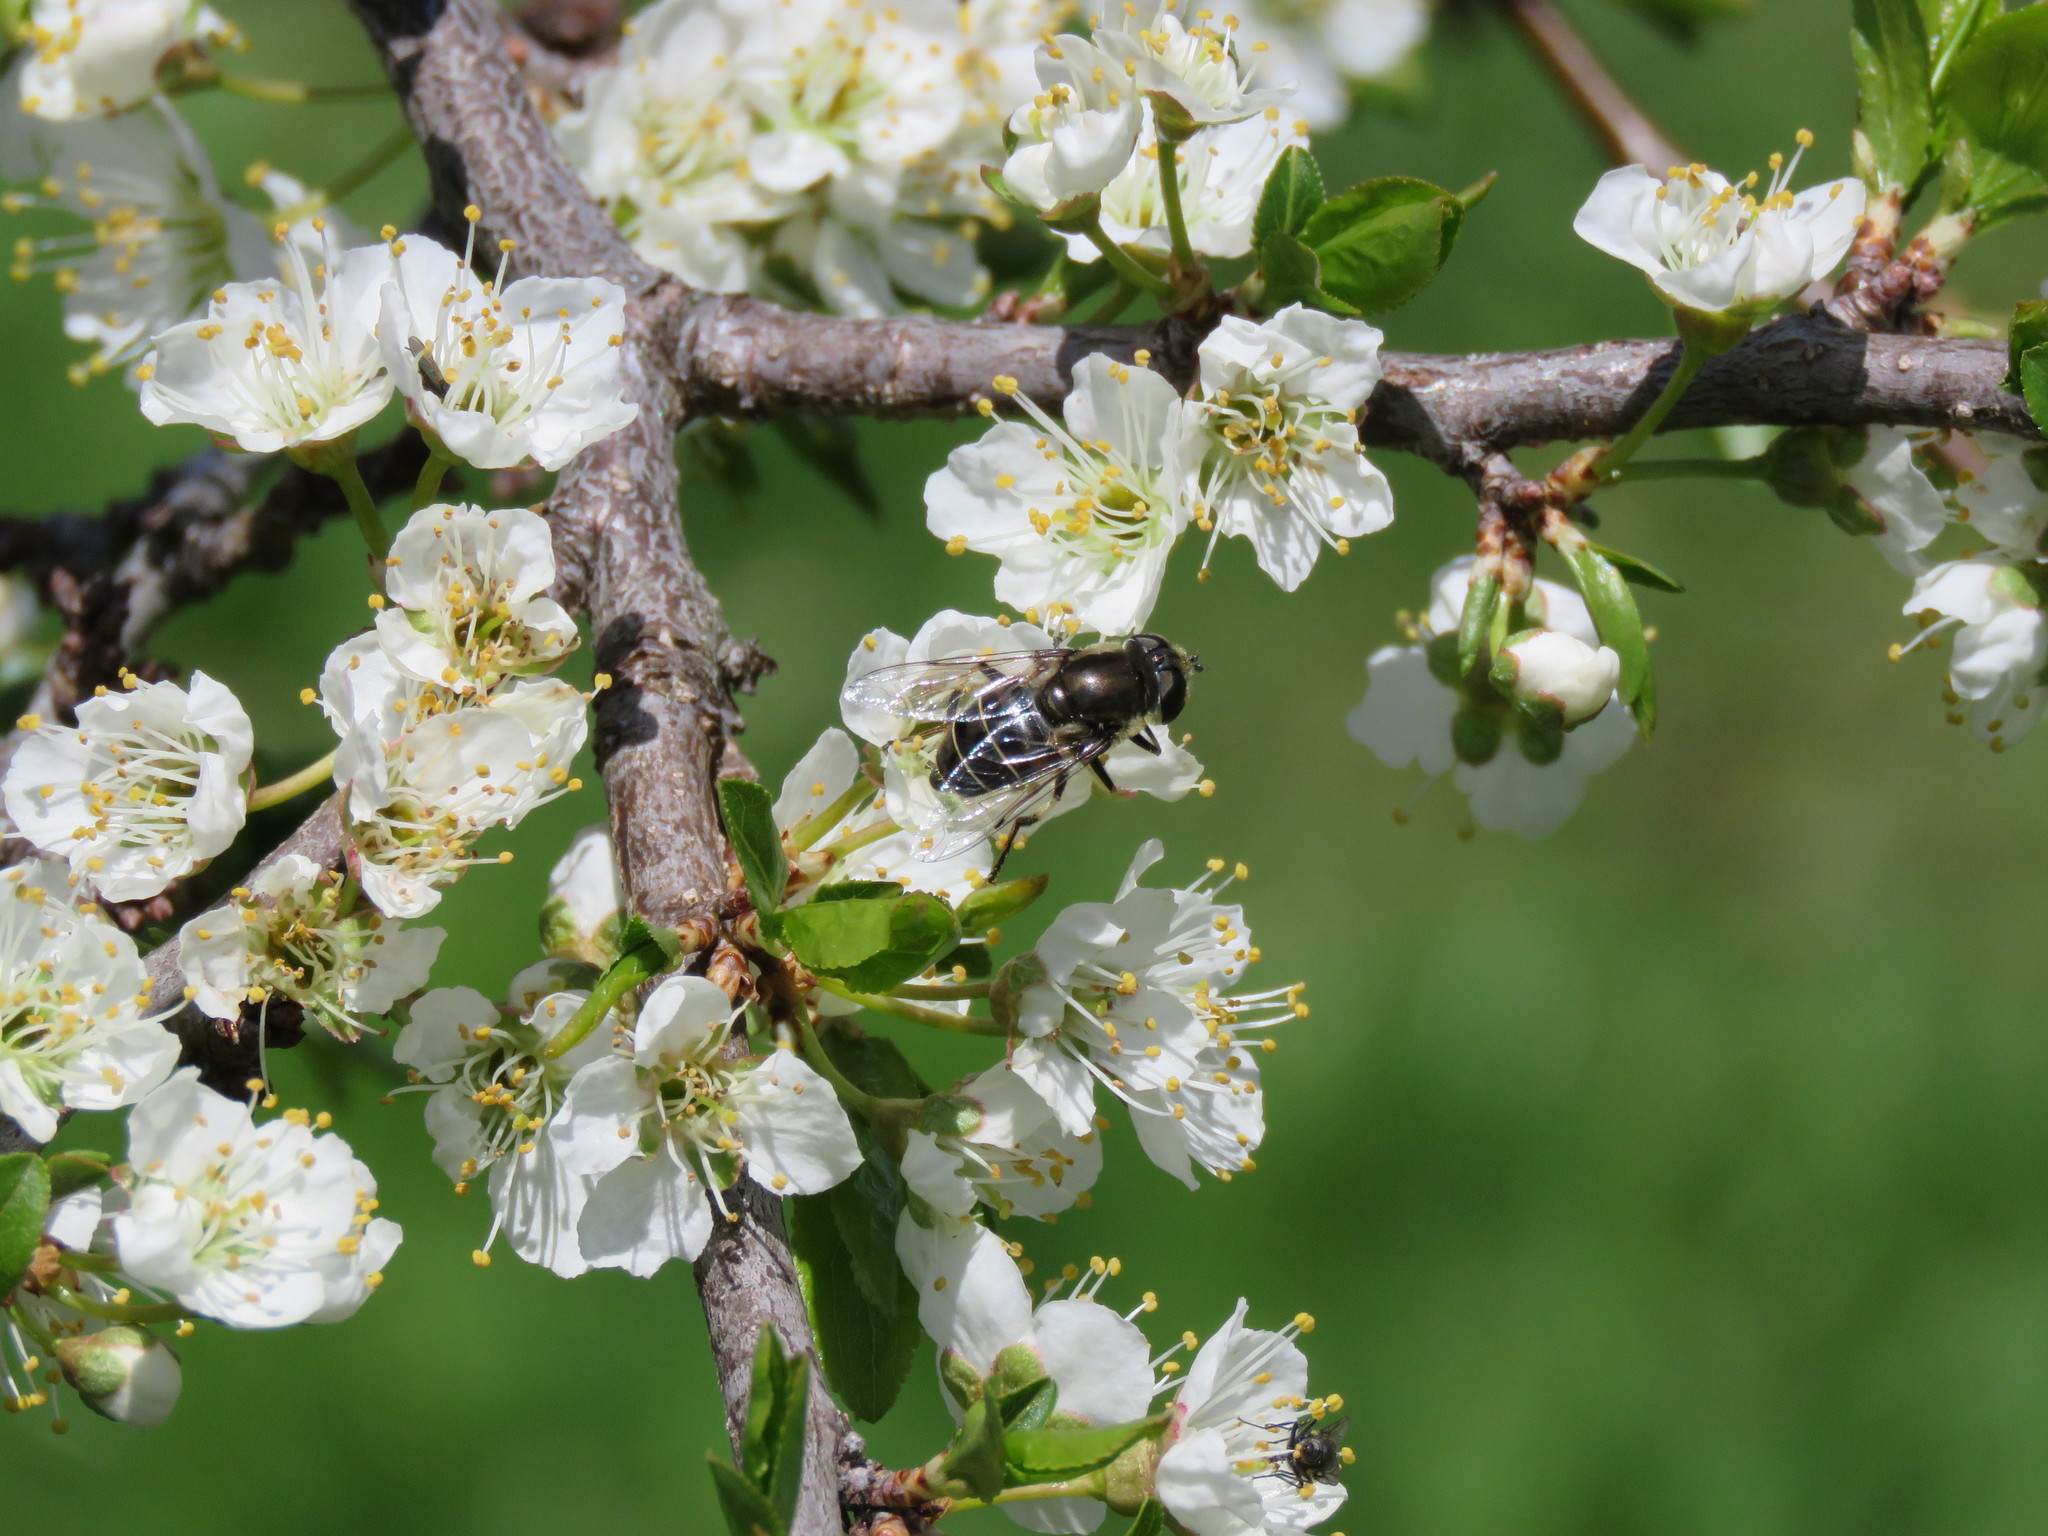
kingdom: Animalia
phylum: Arthropoda
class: Insecta
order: Diptera
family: Syrphidae
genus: Eristalis
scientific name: Eristalis dimidiata
